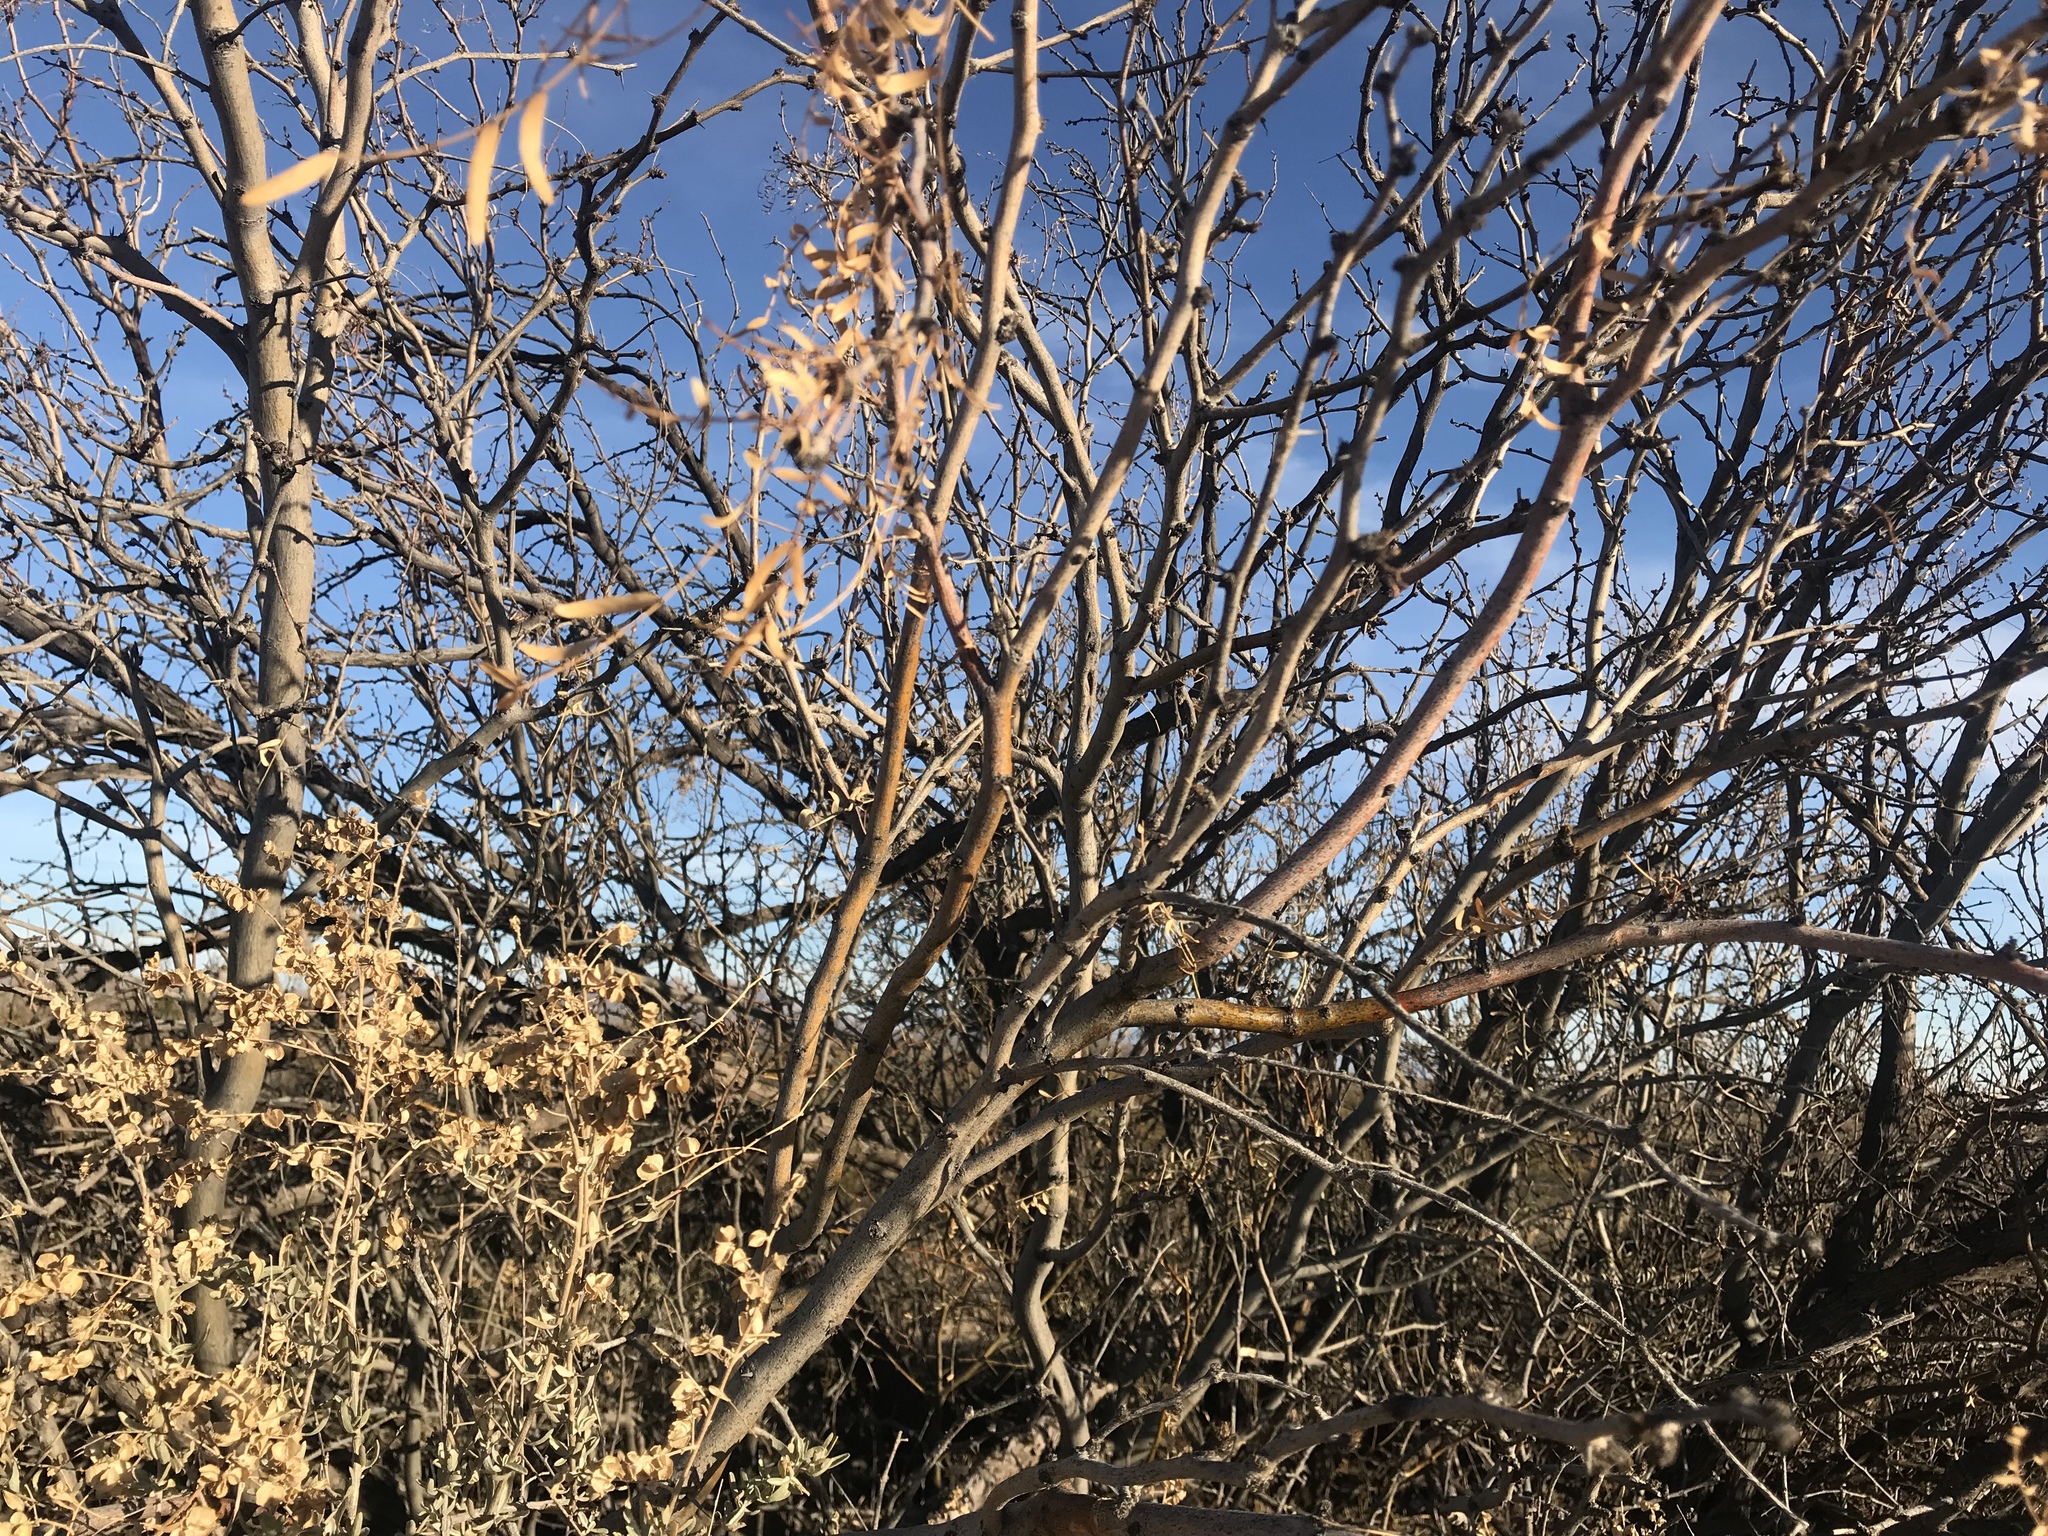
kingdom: Plantae
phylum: Tracheophyta
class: Magnoliopsida
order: Fabales
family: Fabaceae
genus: Prosopis
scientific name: Prosopis glandulosa
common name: Honey mesquite
